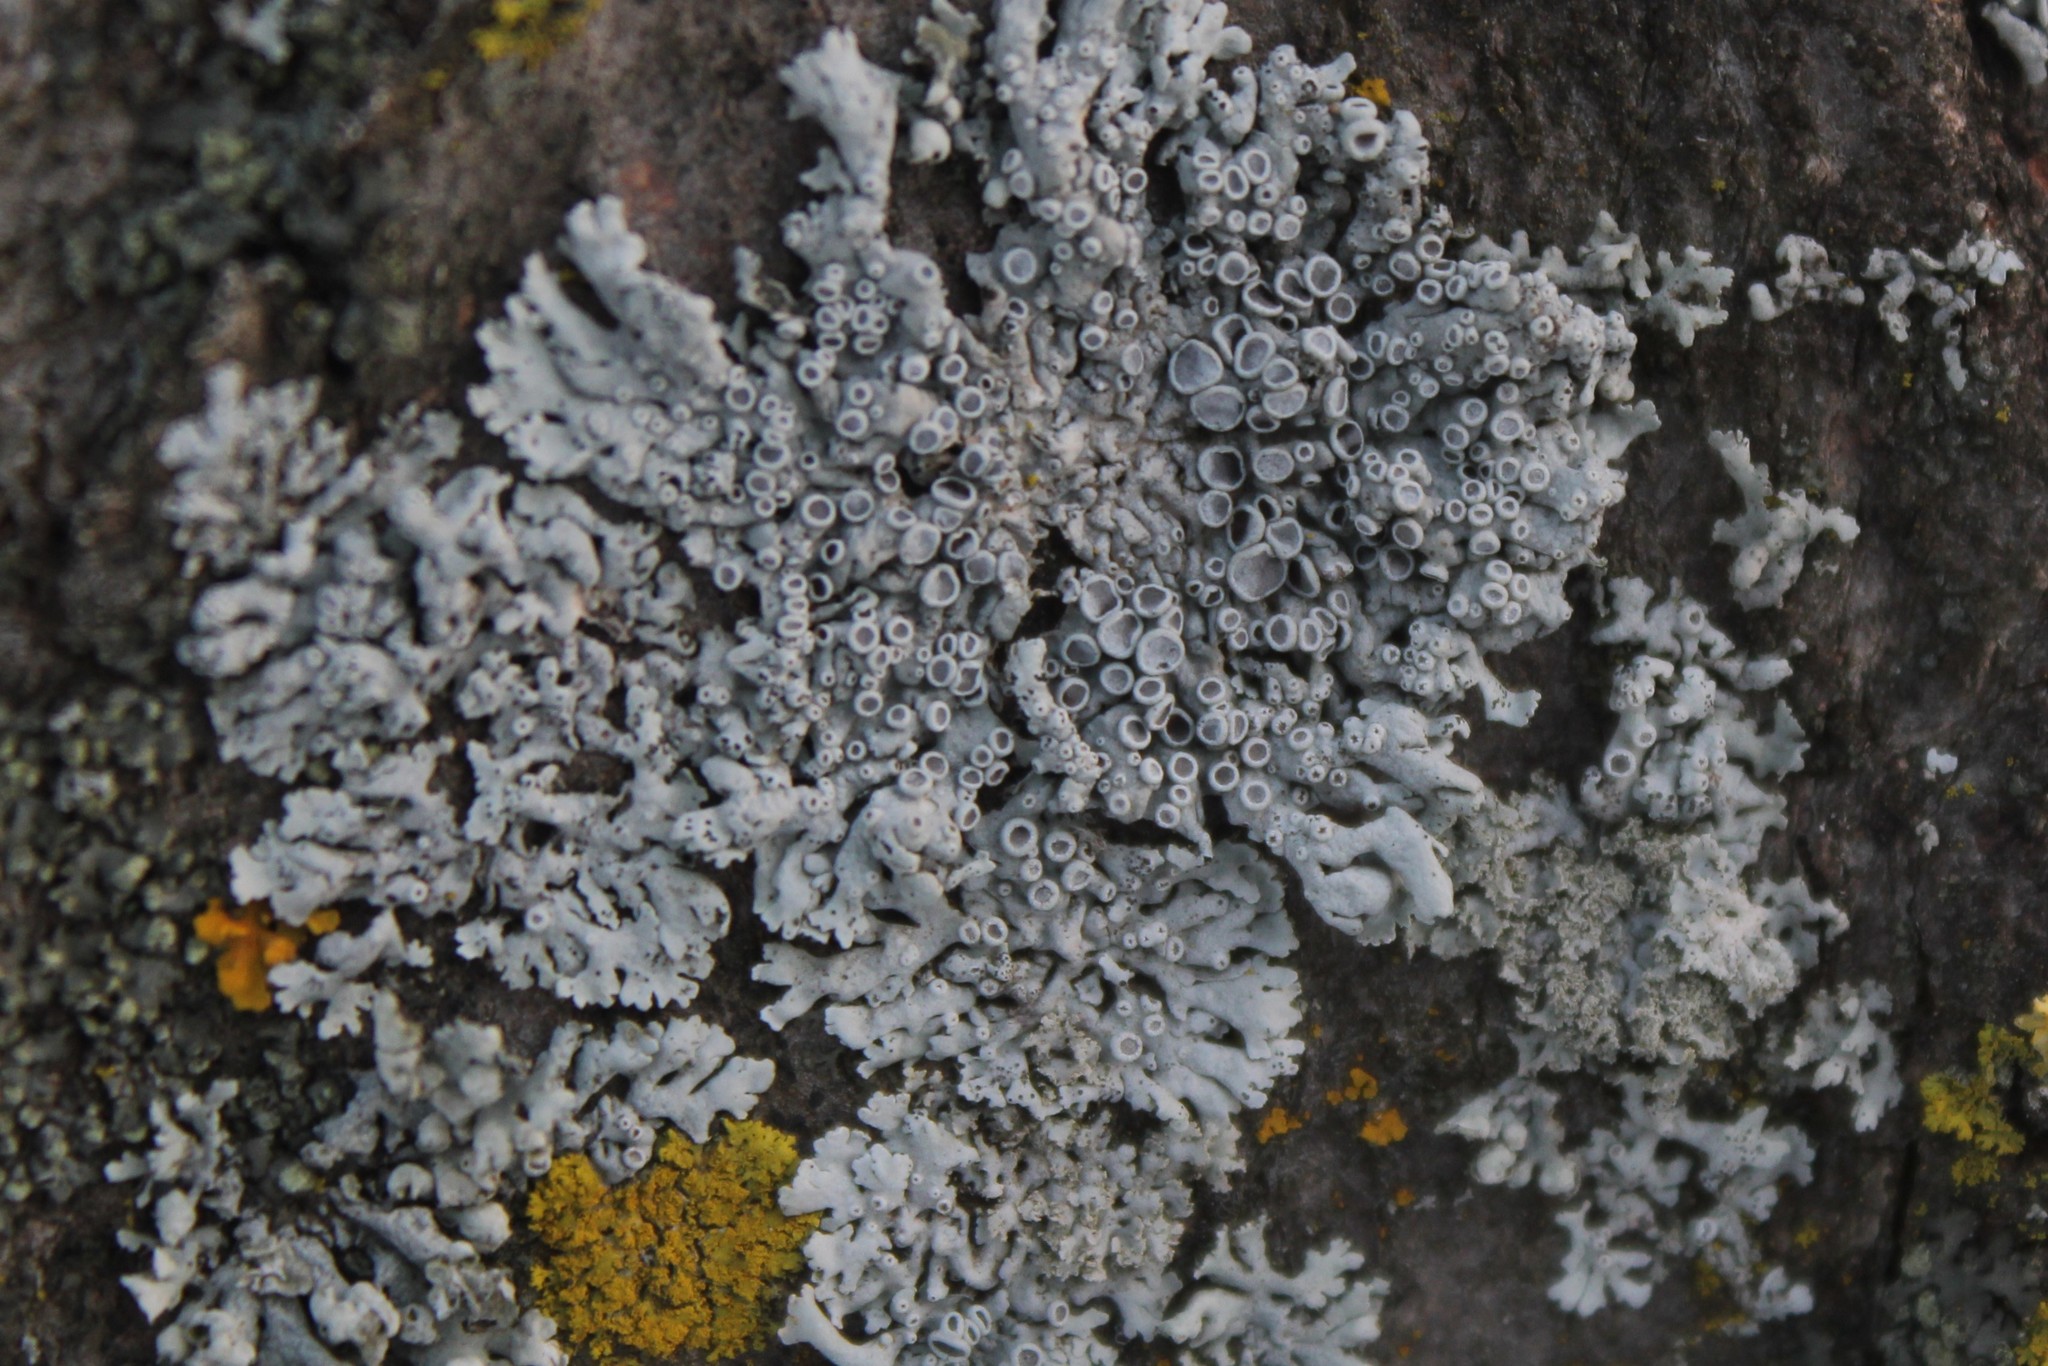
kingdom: Fungi
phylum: Ascomycota
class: Lecanoromycetes
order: Caliciales
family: Physciaceae
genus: Physcia
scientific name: Physcia stellaris
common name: Star rosette lichen
